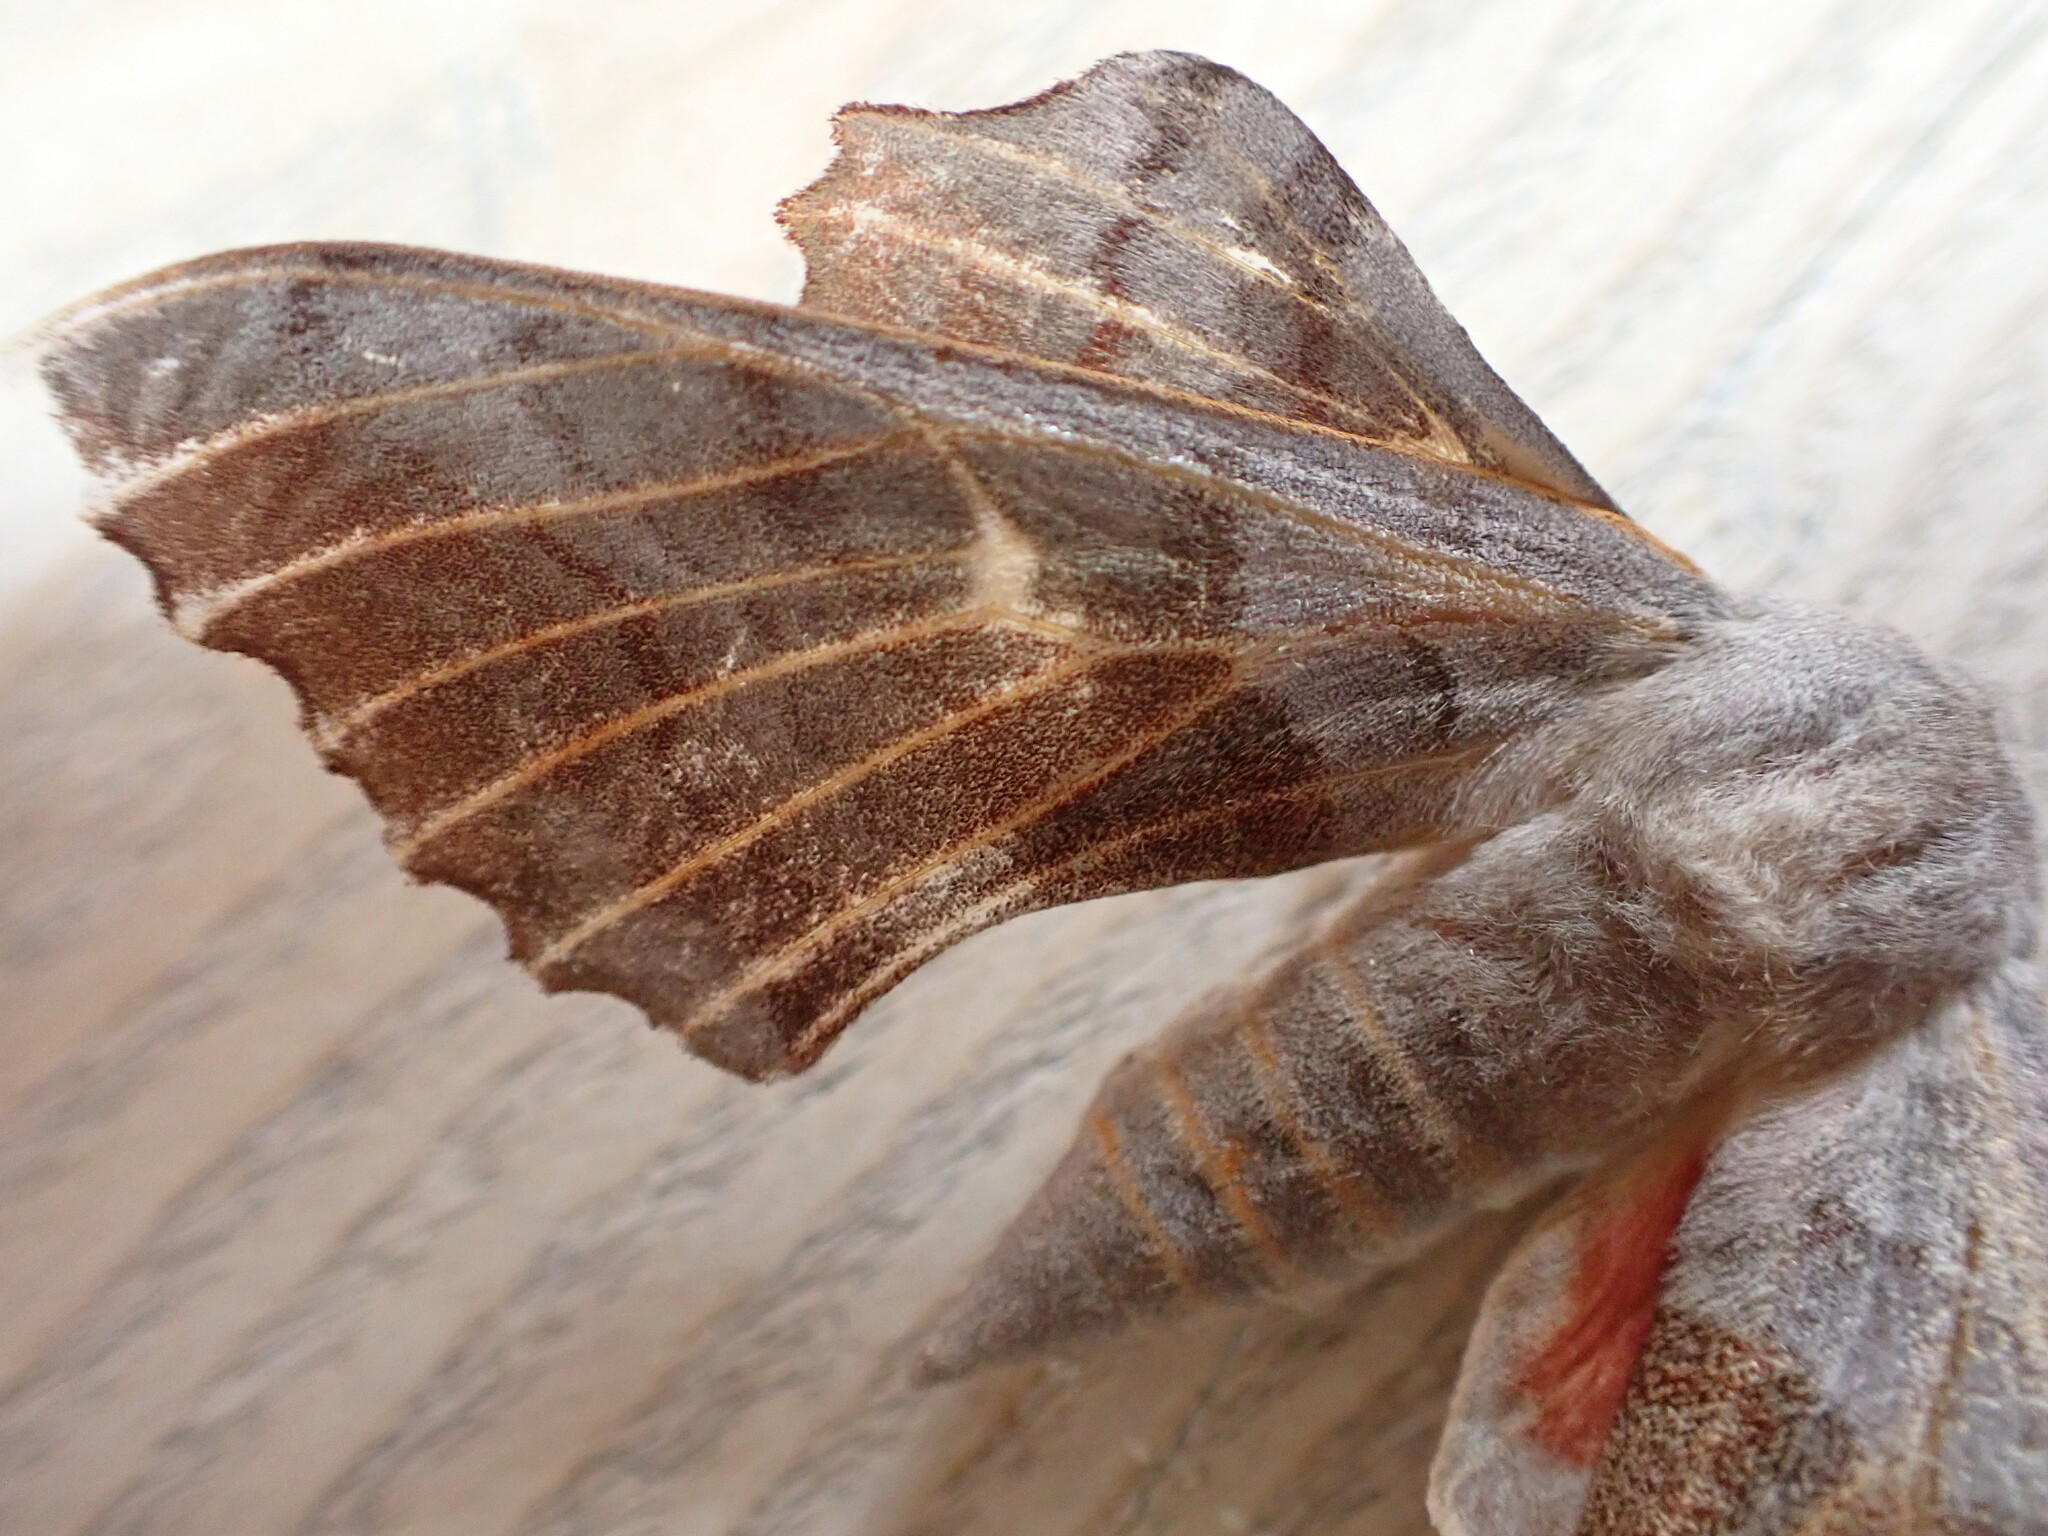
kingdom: Animalia
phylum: Arthropoda
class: Insecta
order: Lepidoptera
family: Sphingidae
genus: Laothoe
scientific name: Laothoe populi
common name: Poplar hawk-moth
